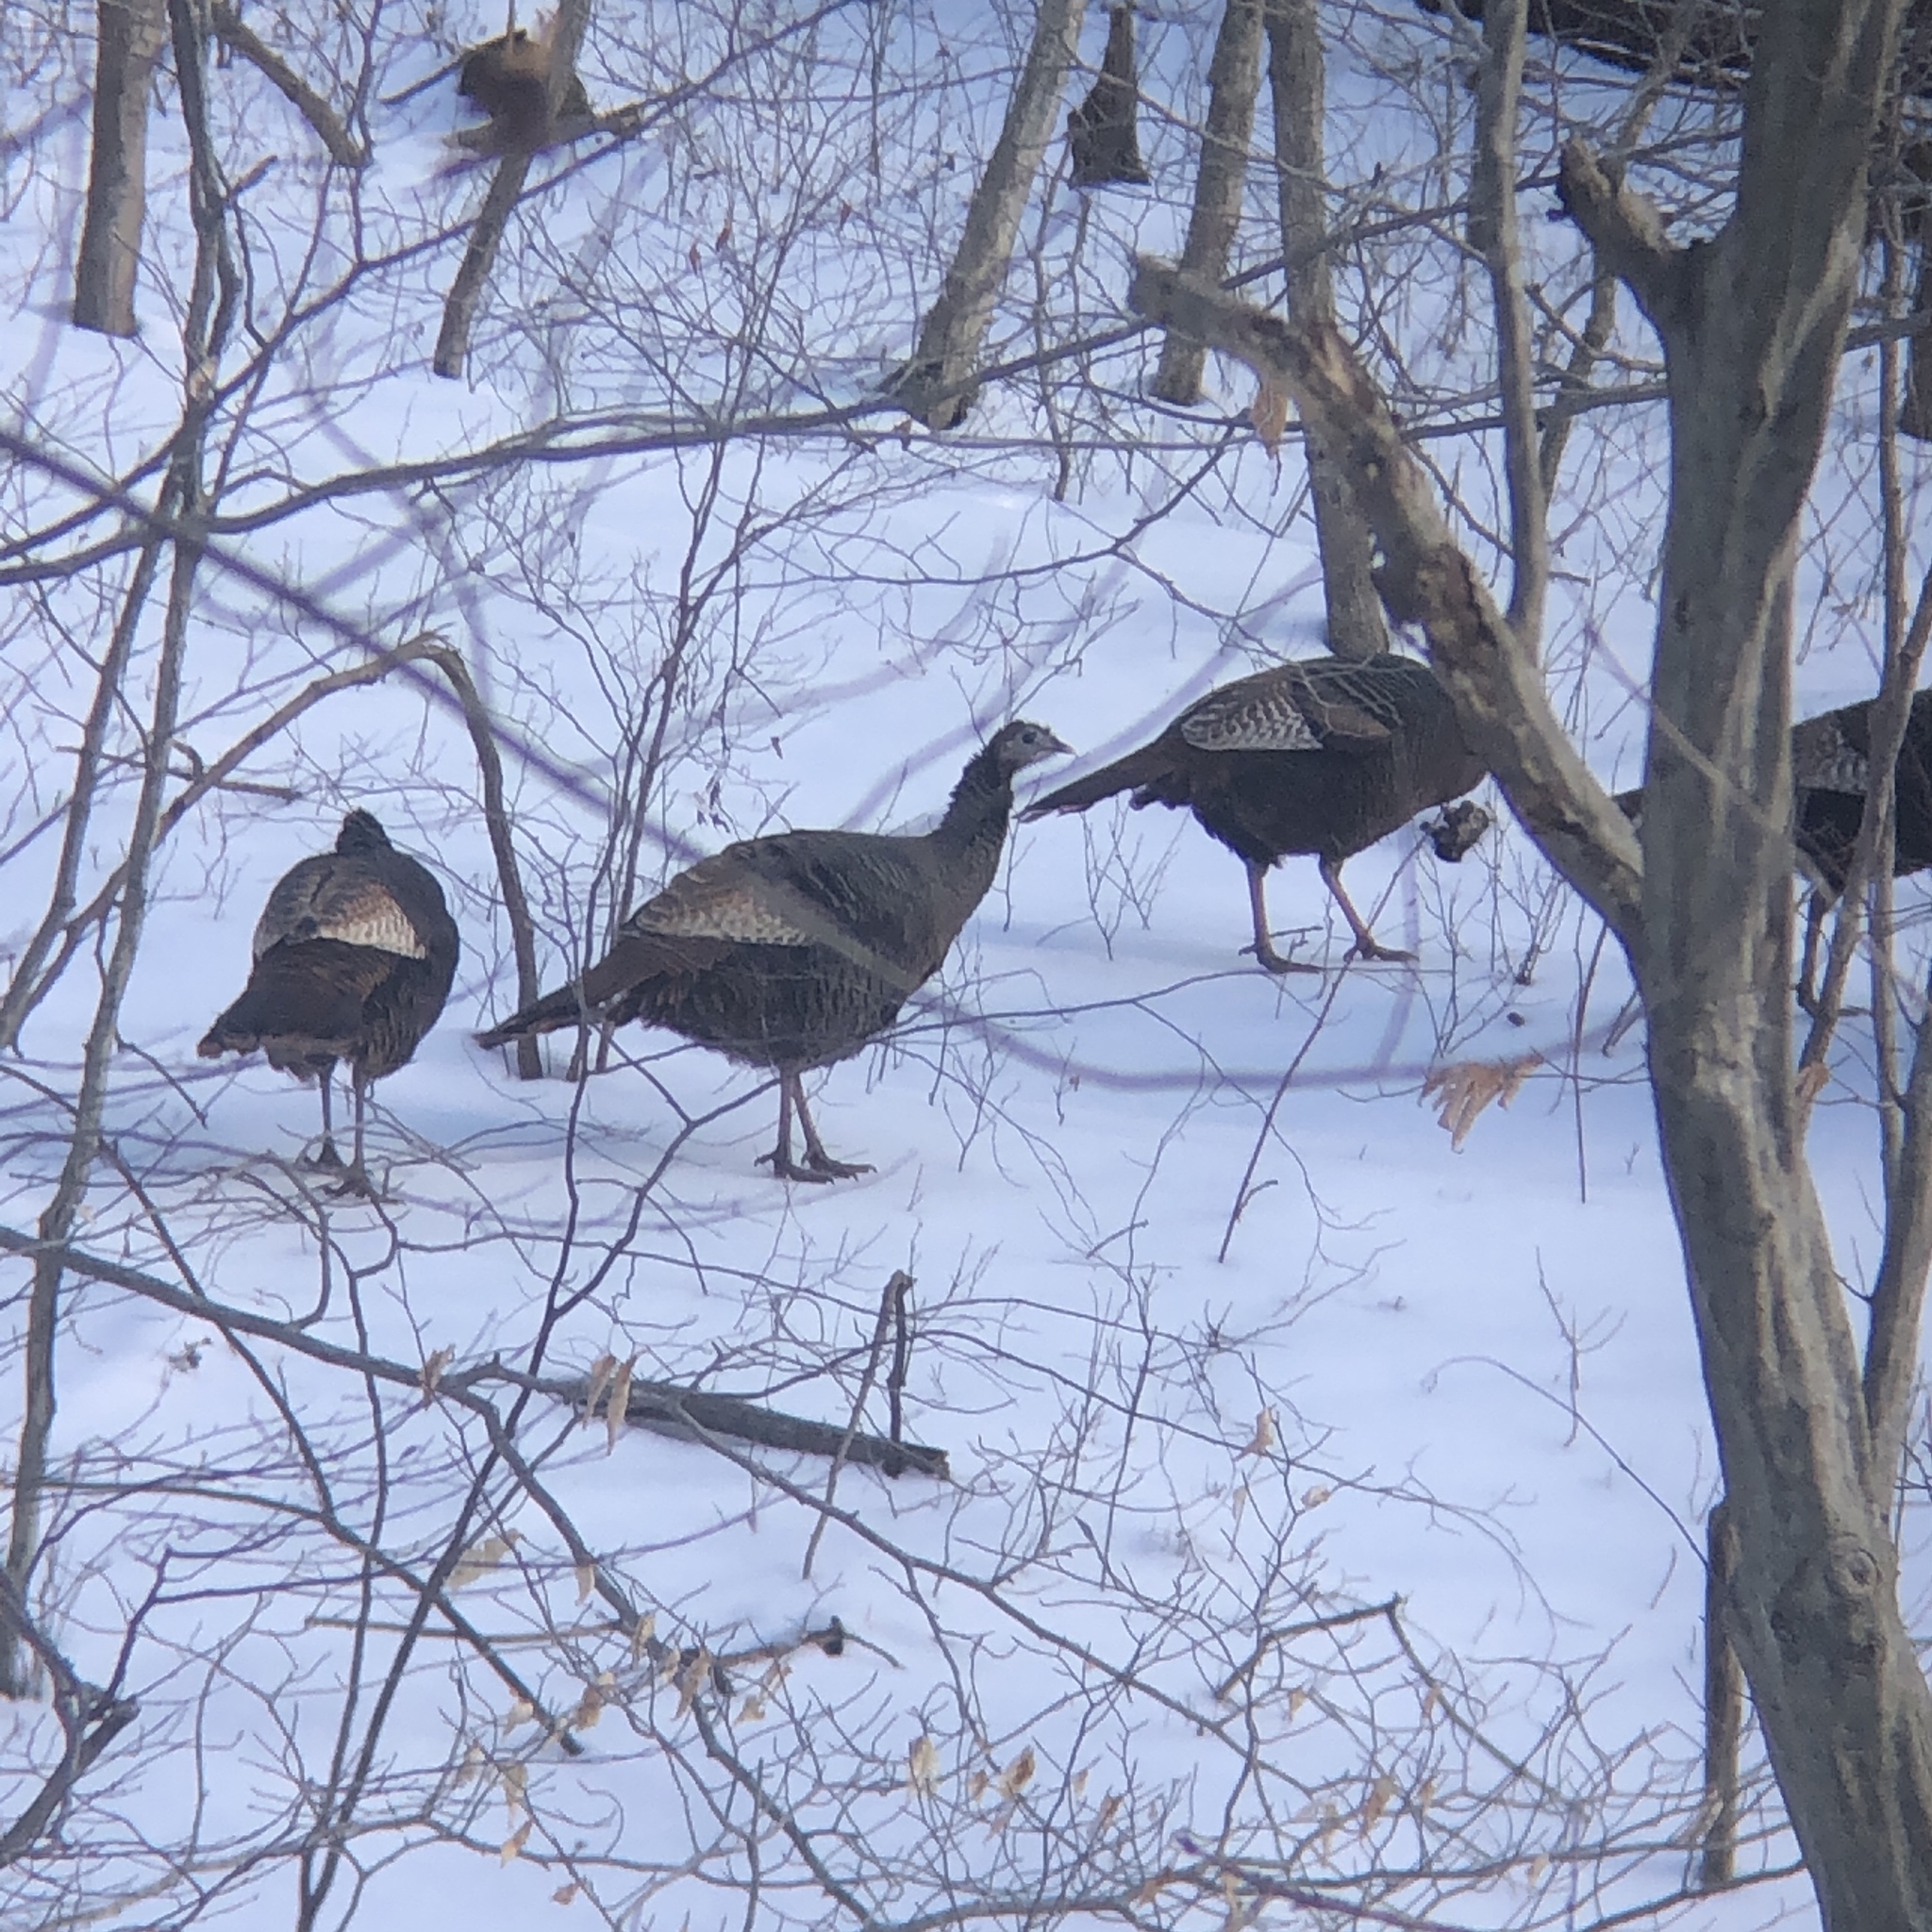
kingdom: Animalia
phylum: Chordata
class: Aves
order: Galliformes
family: Phasianidae
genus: Meleagris
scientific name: Meleagris gallopavo
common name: Wild turkey
